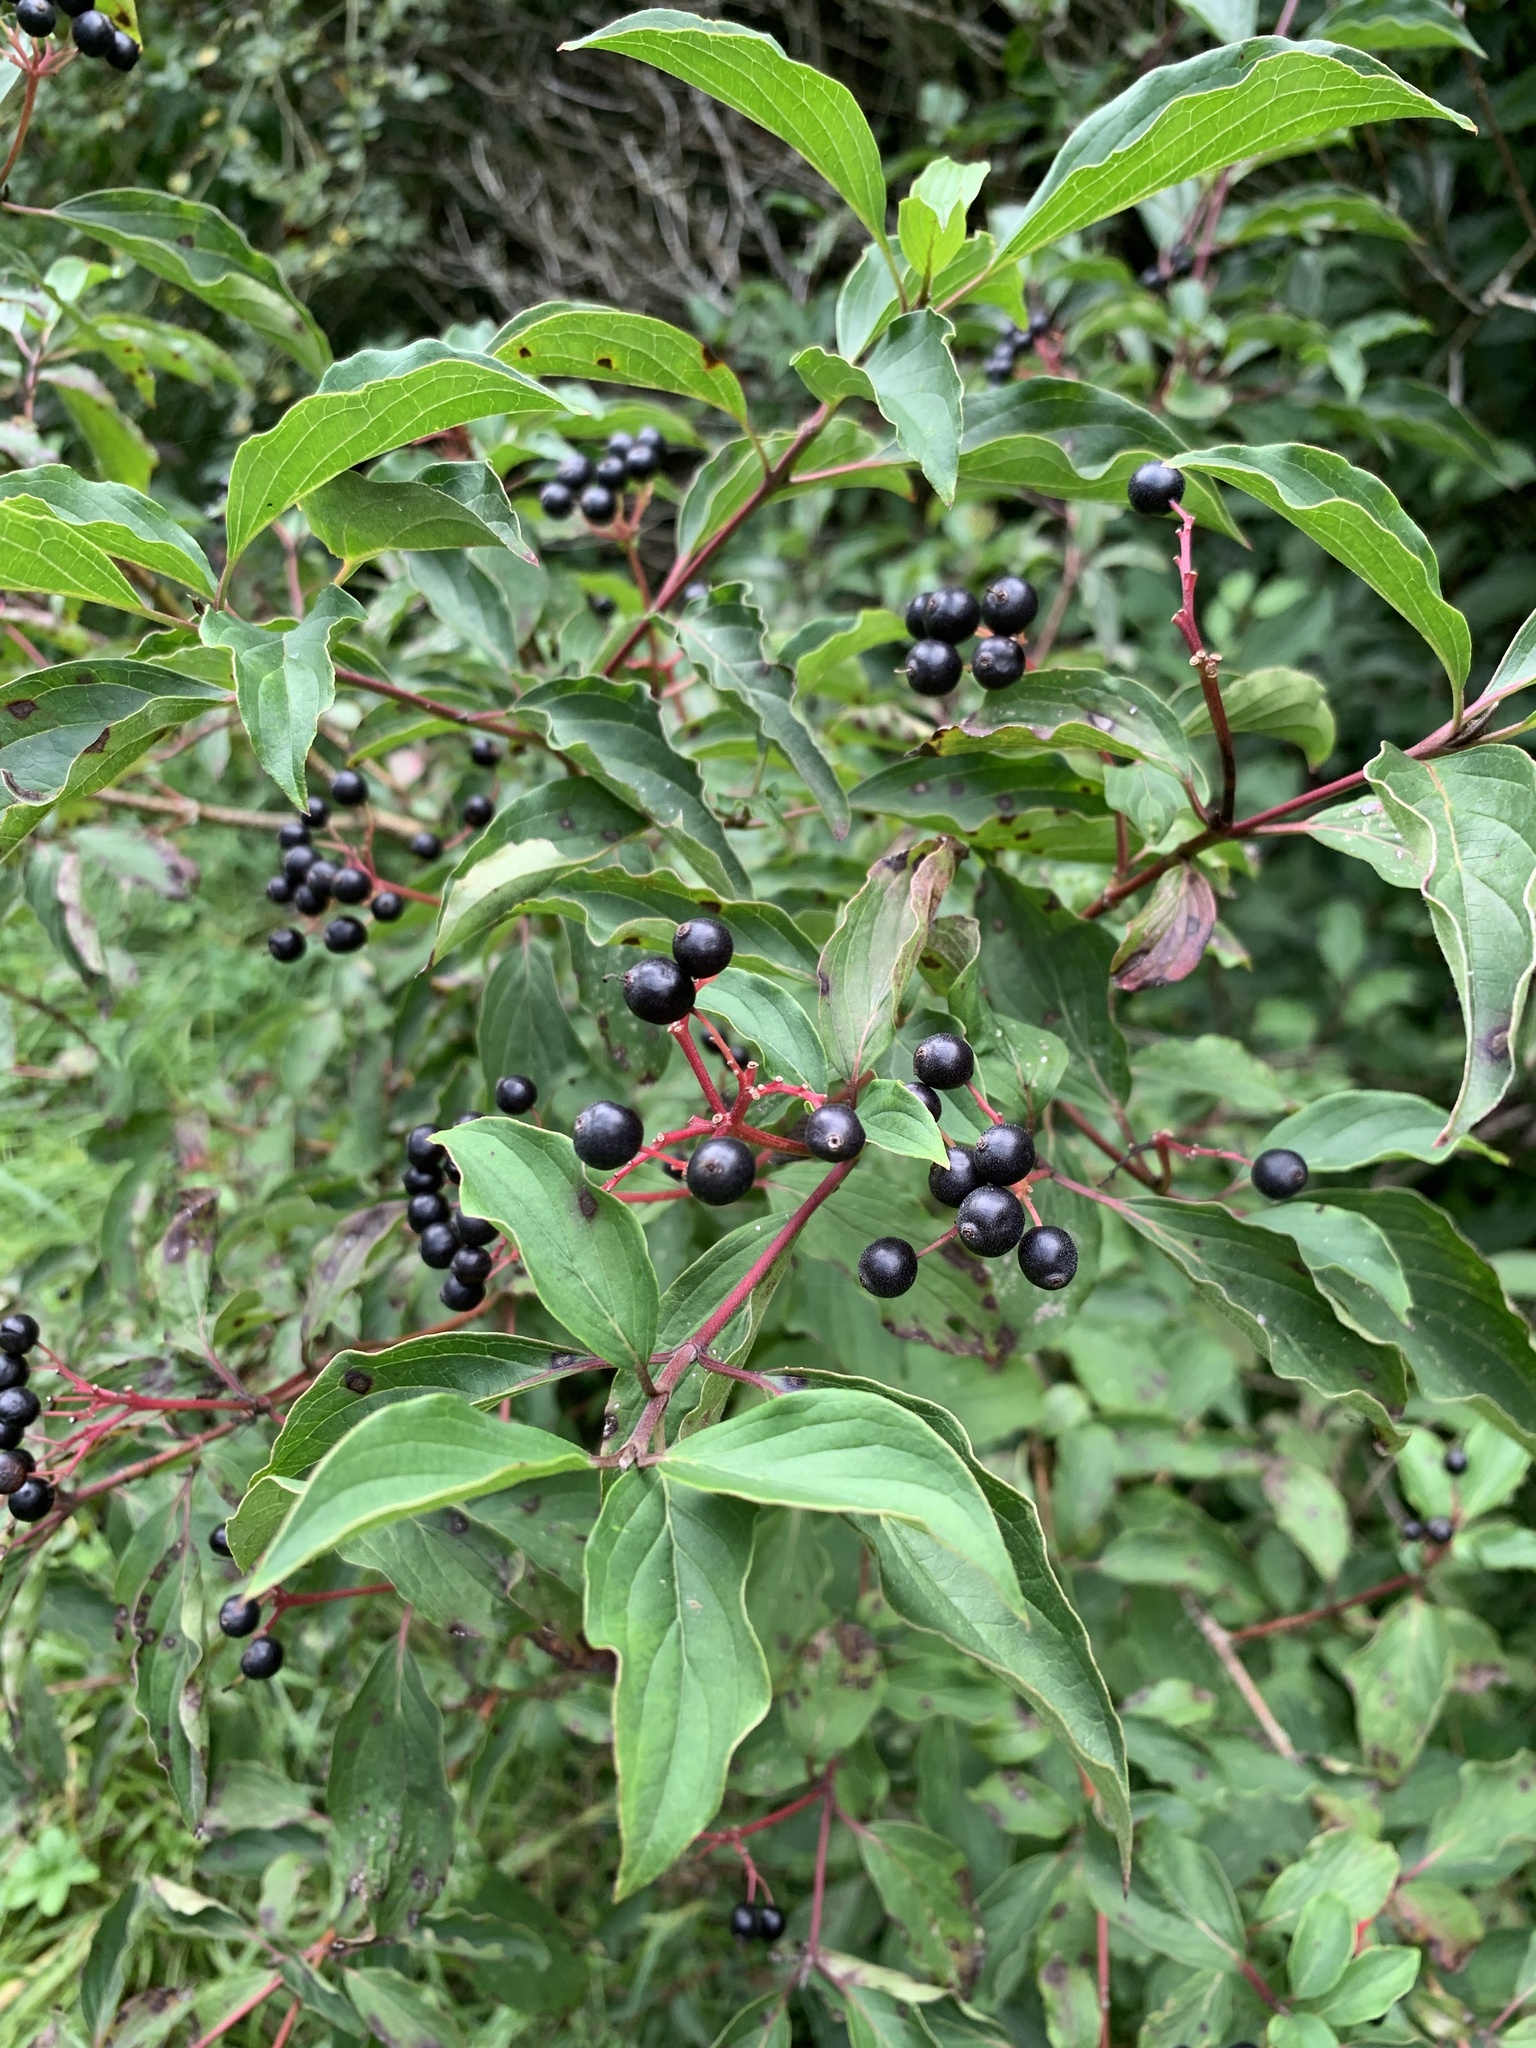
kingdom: Plantae
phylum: Tracheophyta
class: Magnoliopsida
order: Cornales
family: Cornaceae
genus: Cornus
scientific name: Cornus sanguinea
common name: Dogwood
